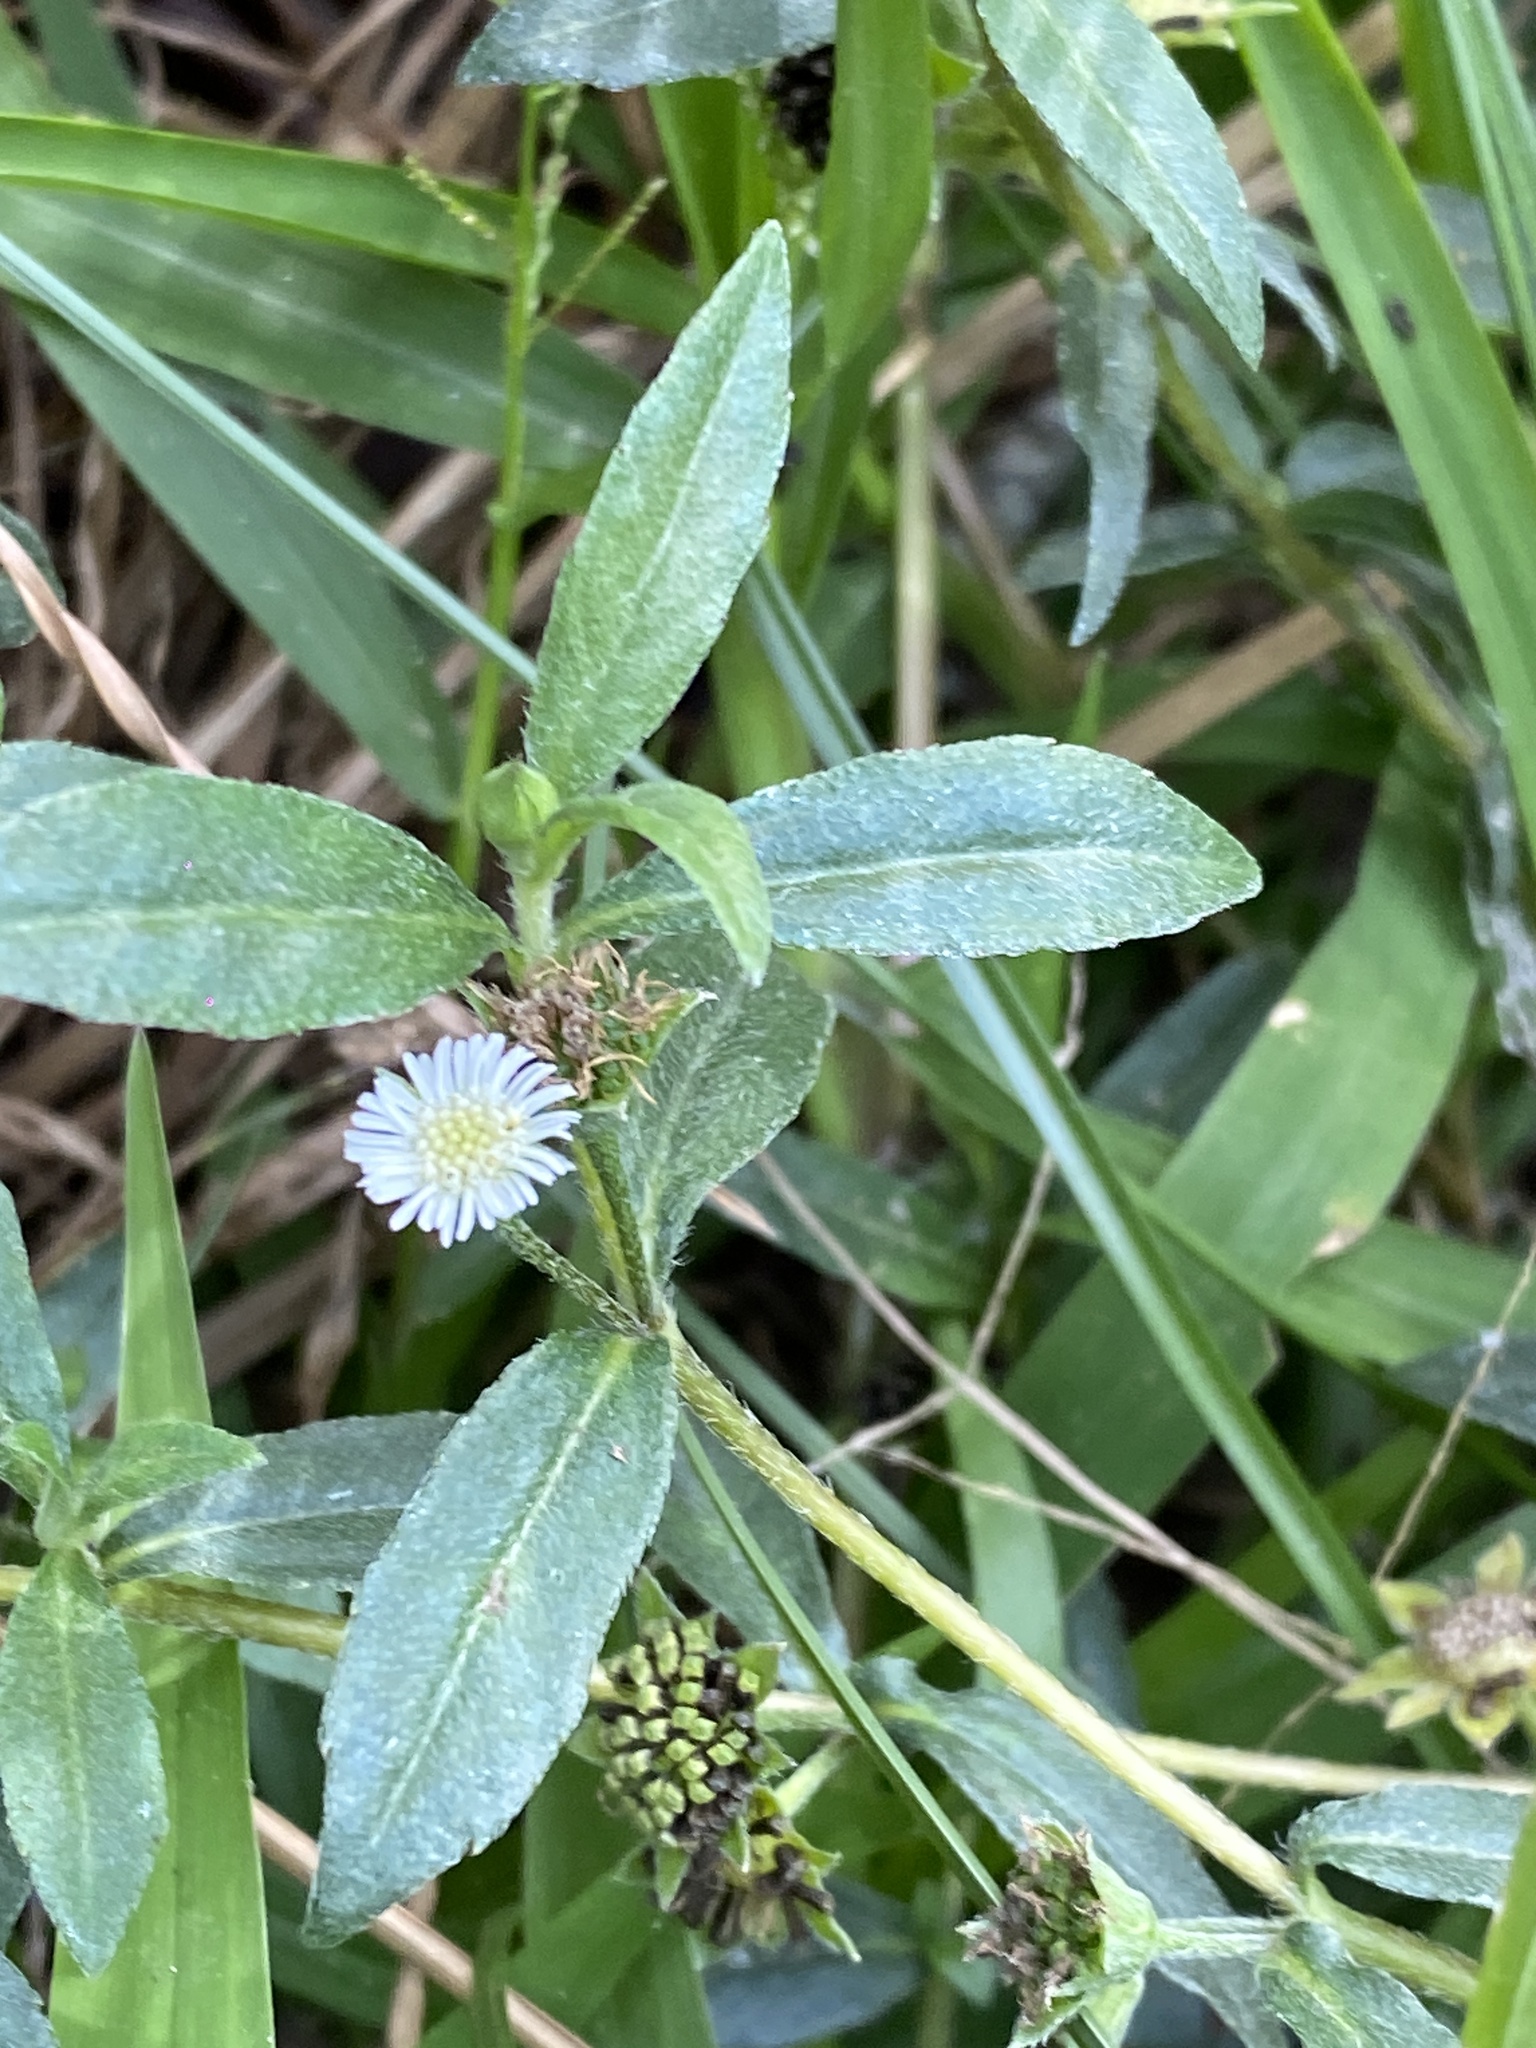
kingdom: Plantae
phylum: Tracheophyta
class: Magnoliopsida
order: Asterales
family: Asteraceae
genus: Eclipta
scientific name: Eclipta prostrata
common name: False daisy
